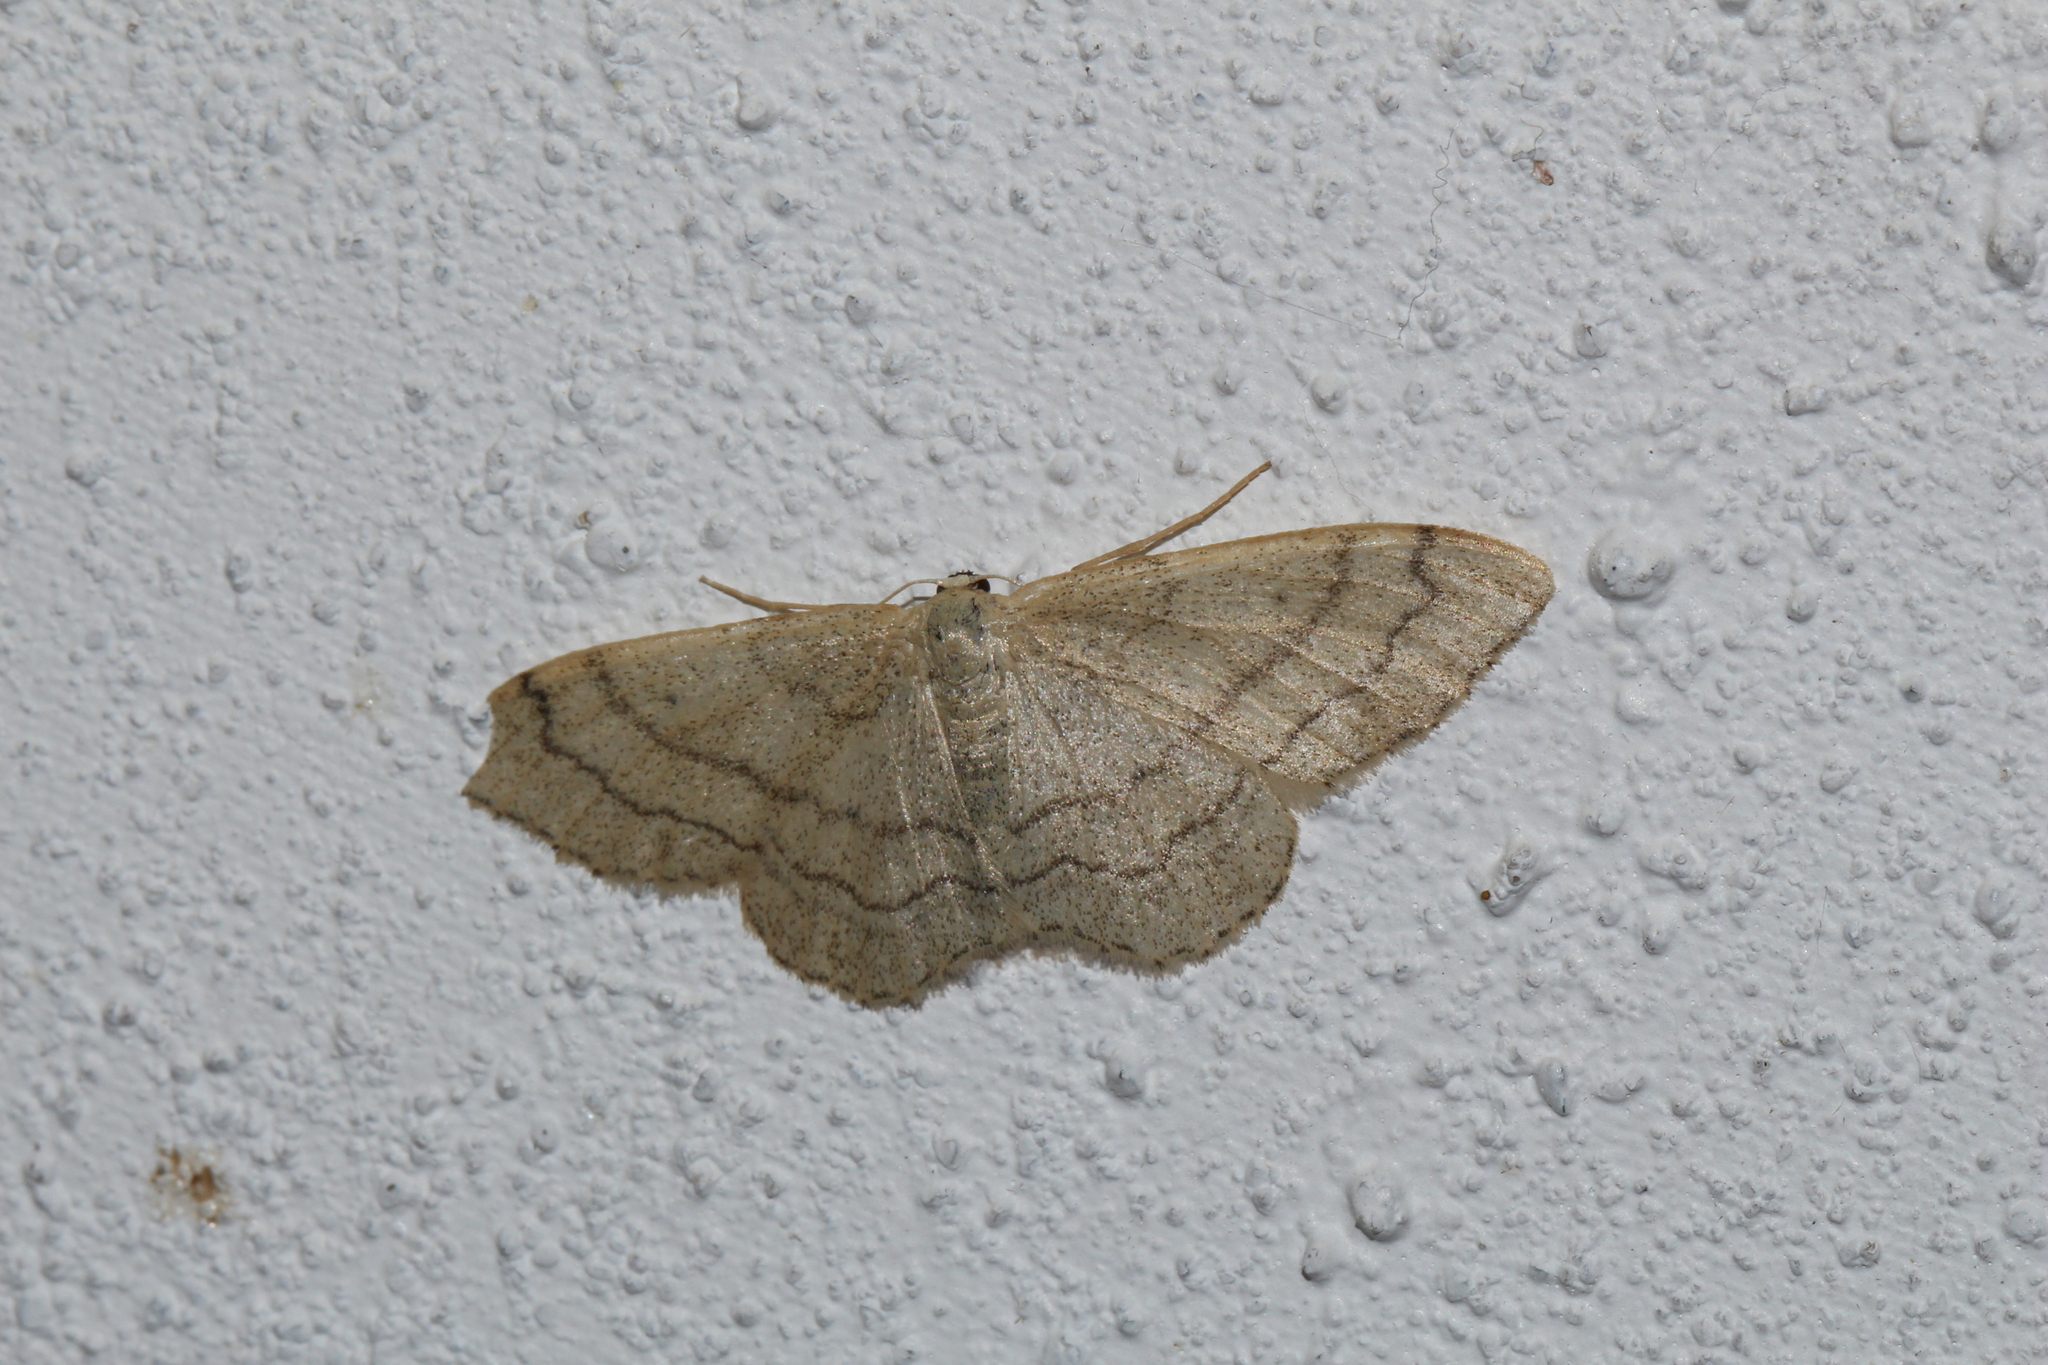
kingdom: Animalia
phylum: Arthropoda
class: Insecta
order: Lepidoptera
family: Geometridae
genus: Idaea
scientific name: Idaea aversata
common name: Riband wave
